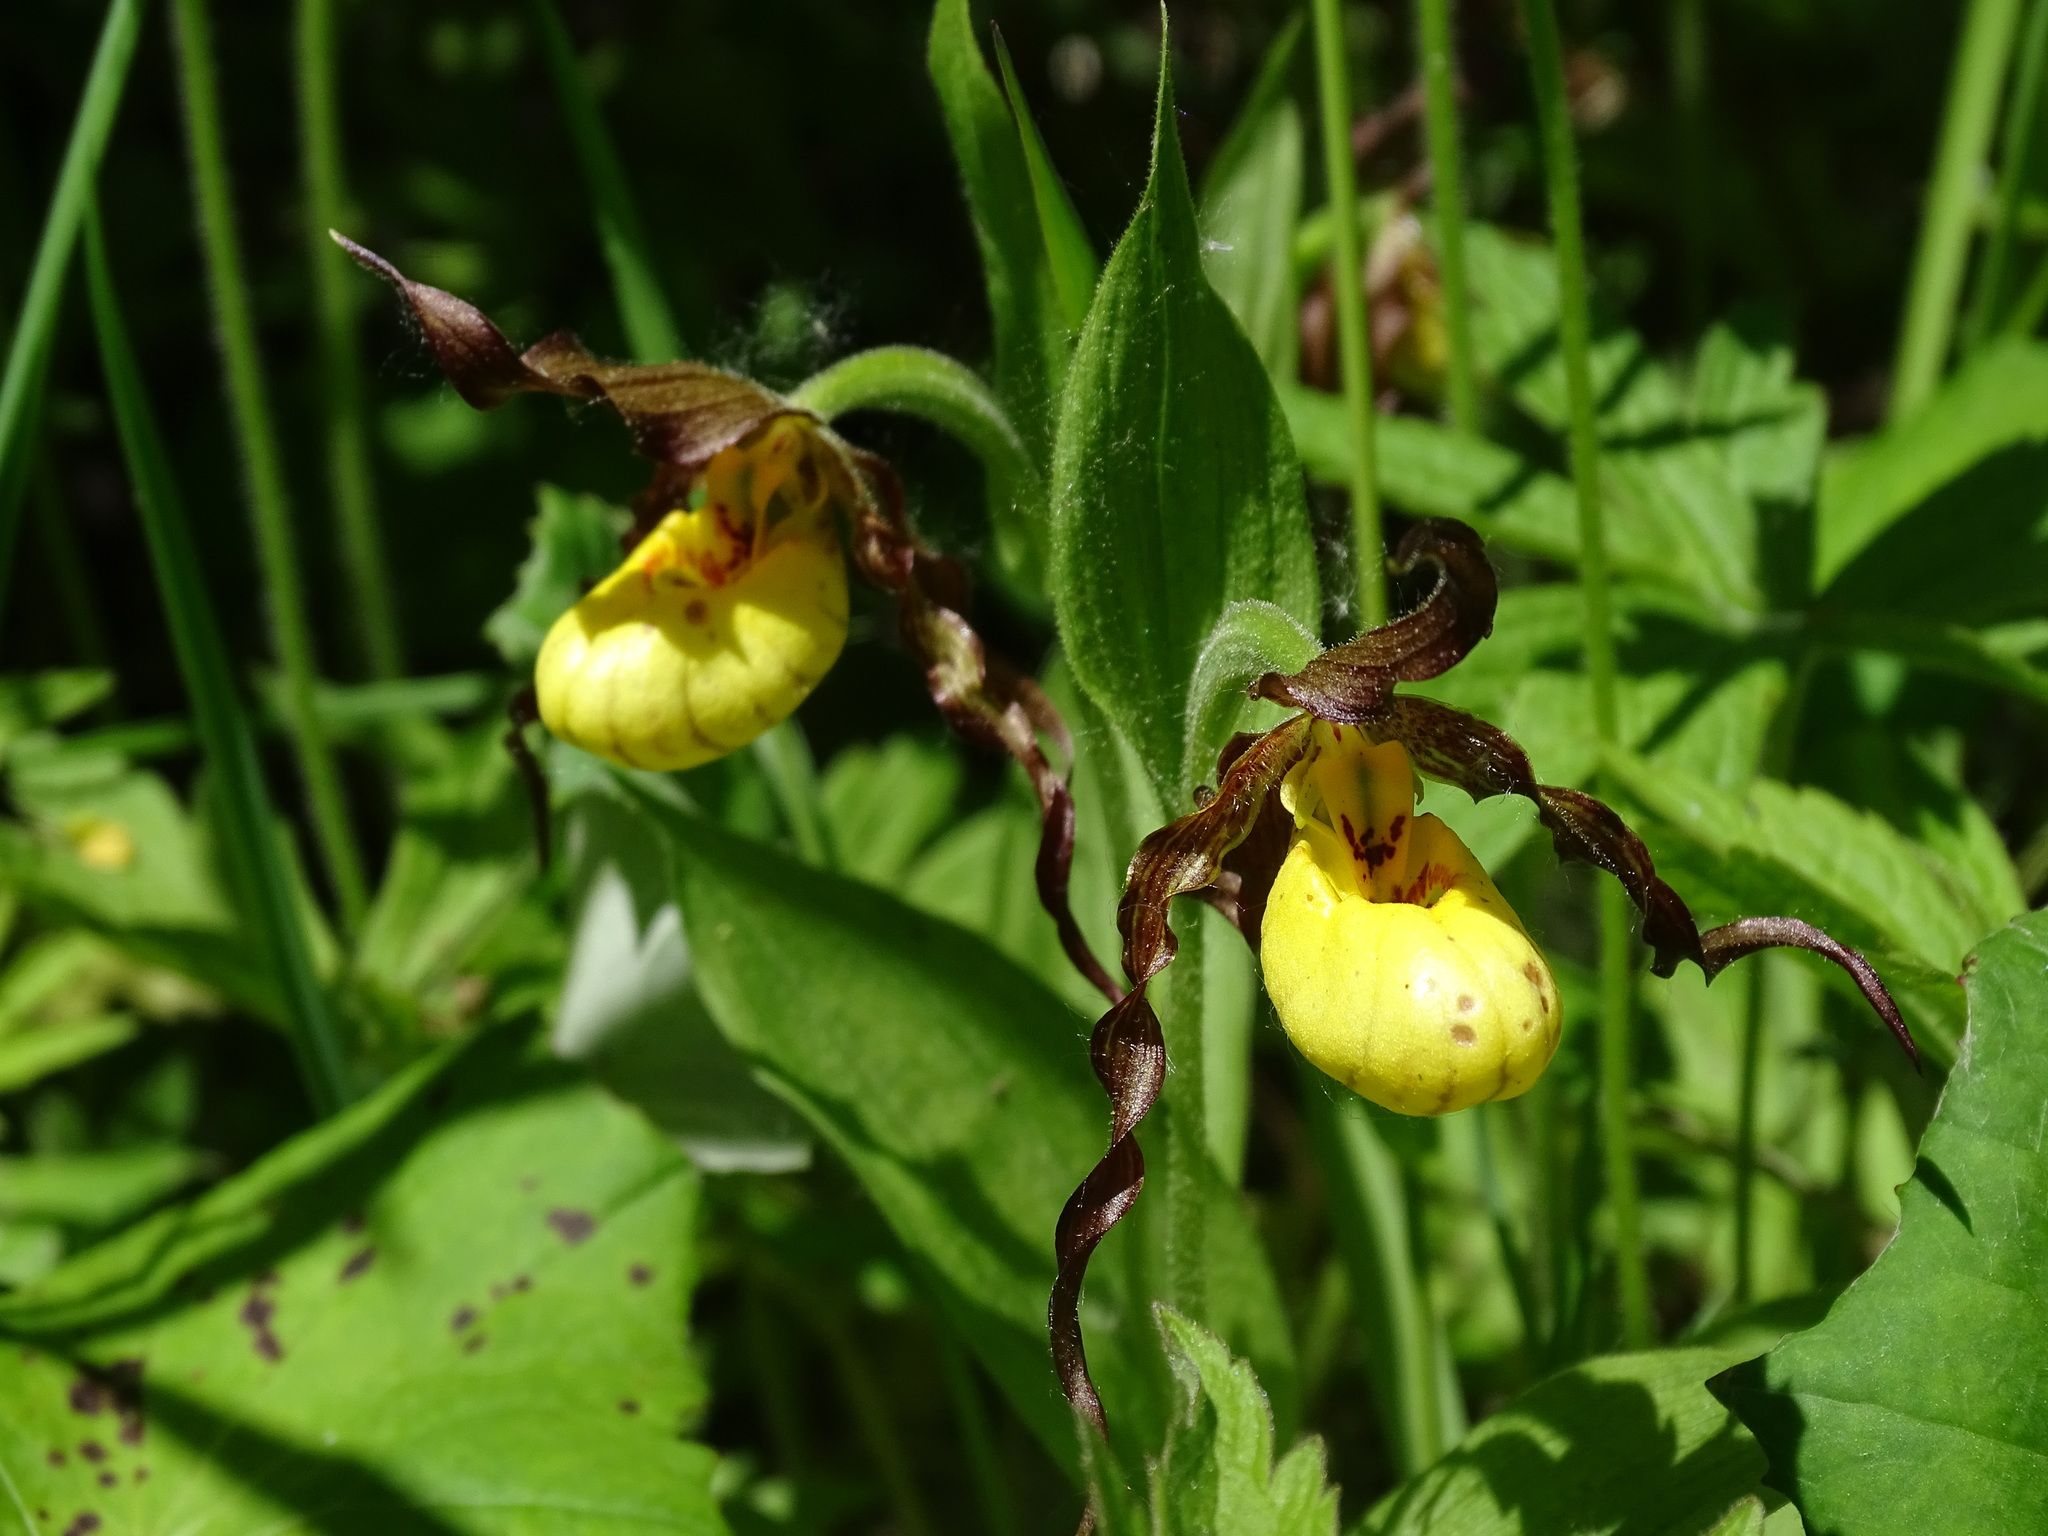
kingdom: Plantae
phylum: Tracheophyta
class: Liliopsida
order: Asparagales
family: Orchidaceae
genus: Cypripedium
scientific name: Cypripedium parviflorum
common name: American yellow lady's-slipper
